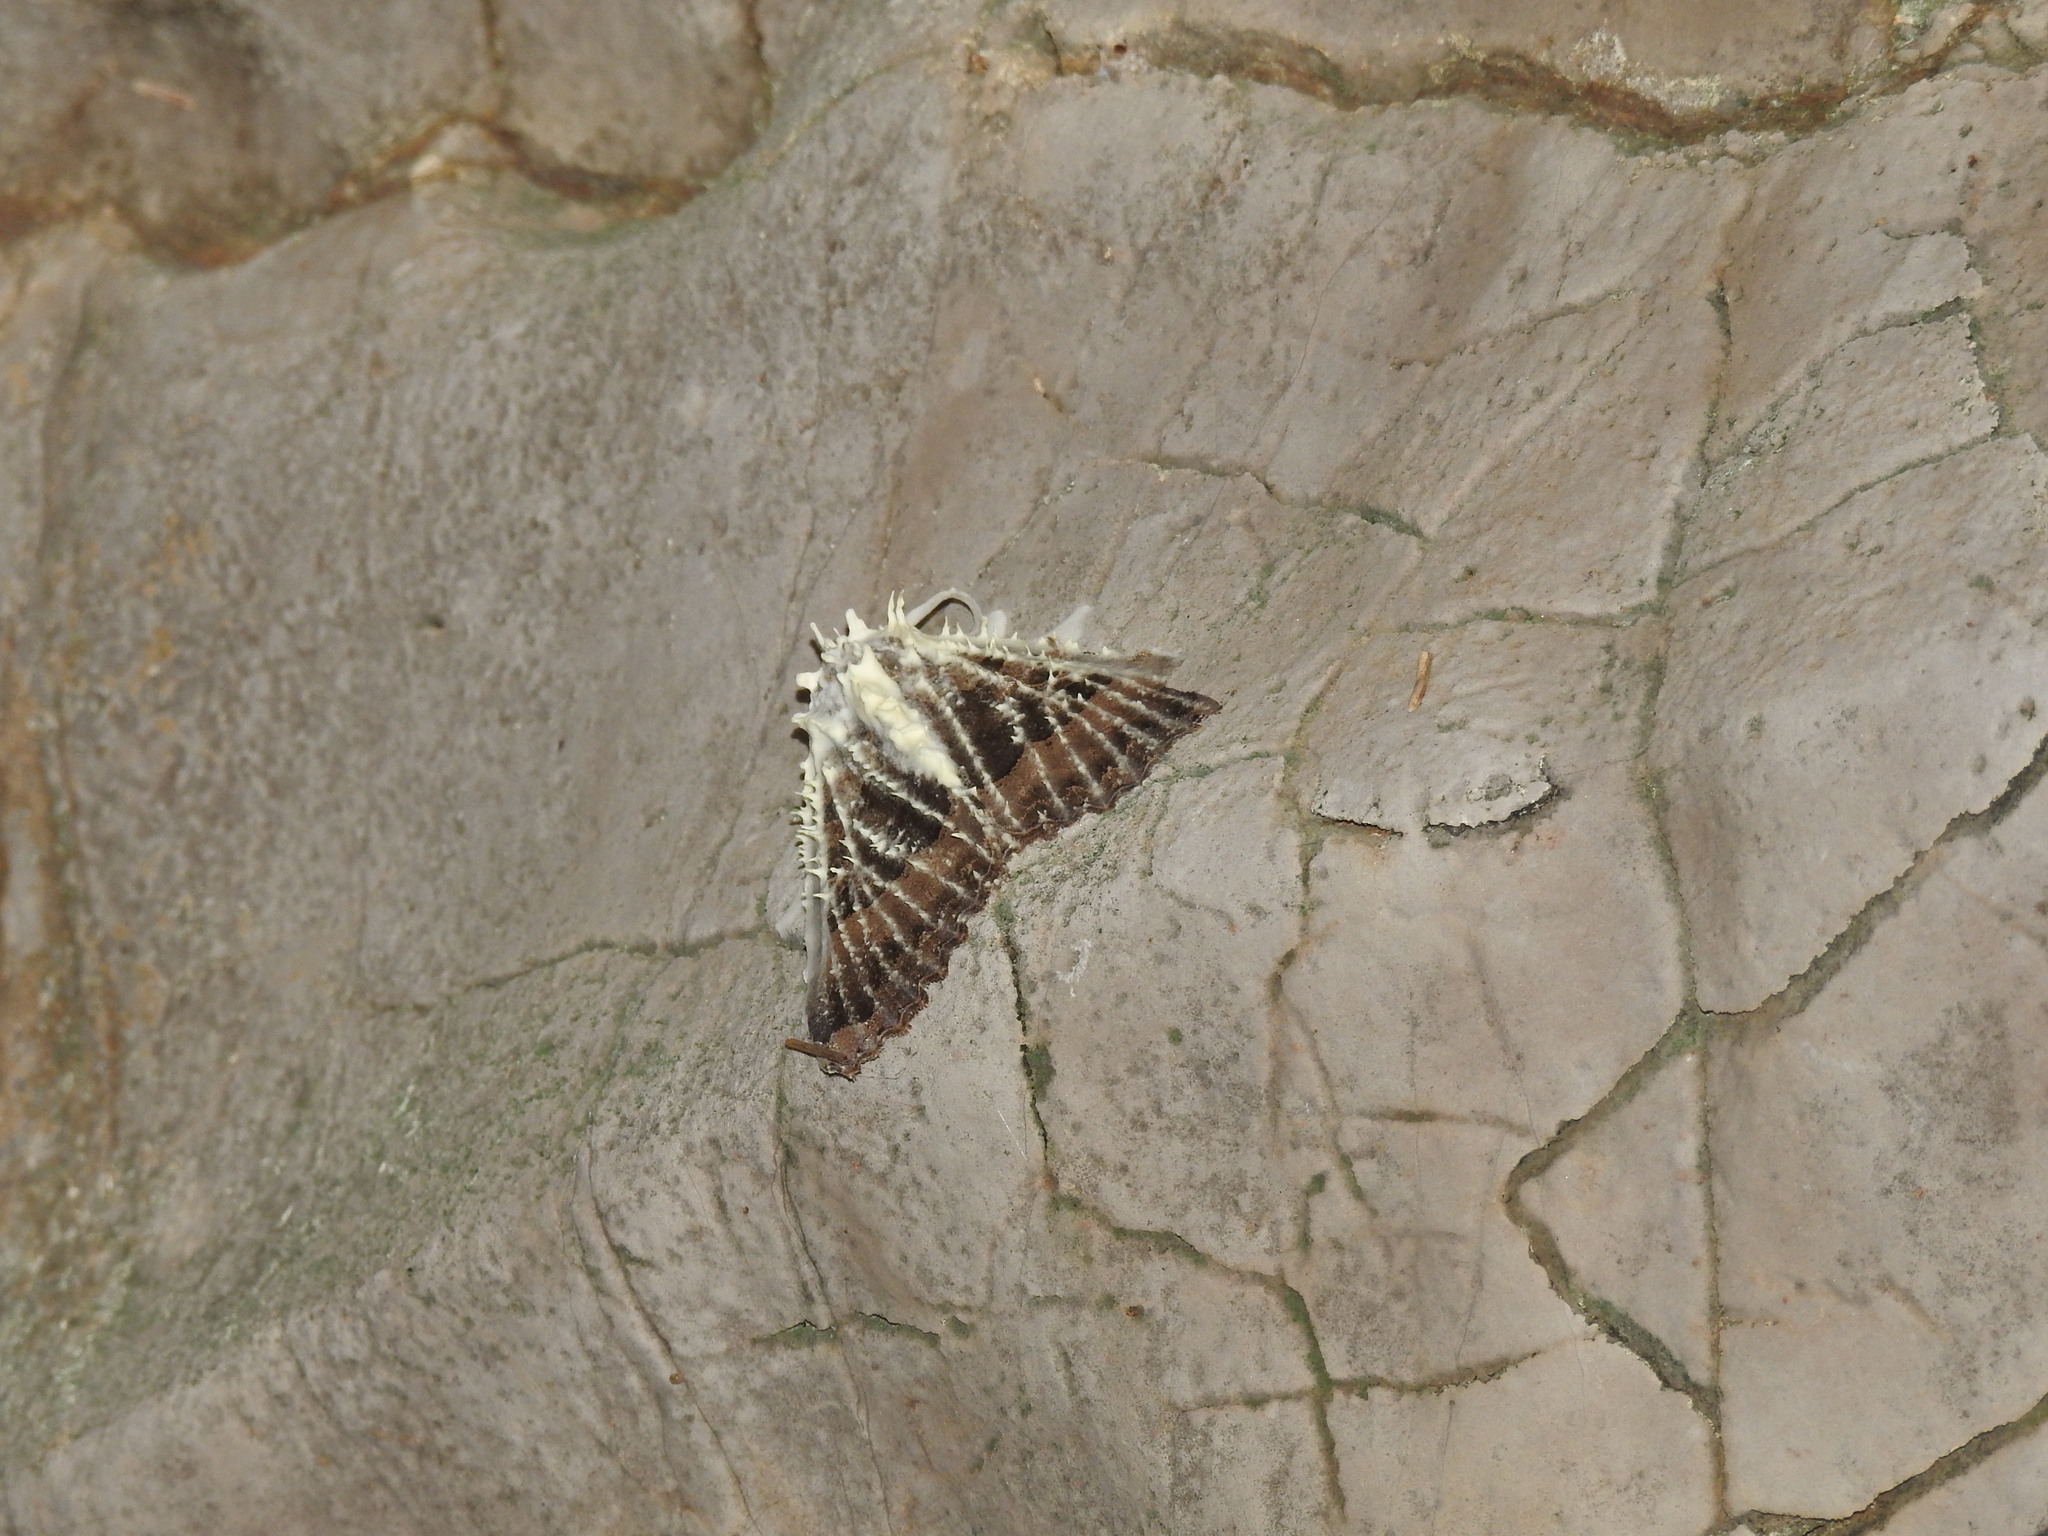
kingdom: Animalia
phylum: Arthropoda
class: Insecta
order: Lepidoptera
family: Noctuidae
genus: Mormo
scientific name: Mormo maura
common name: Old lady
